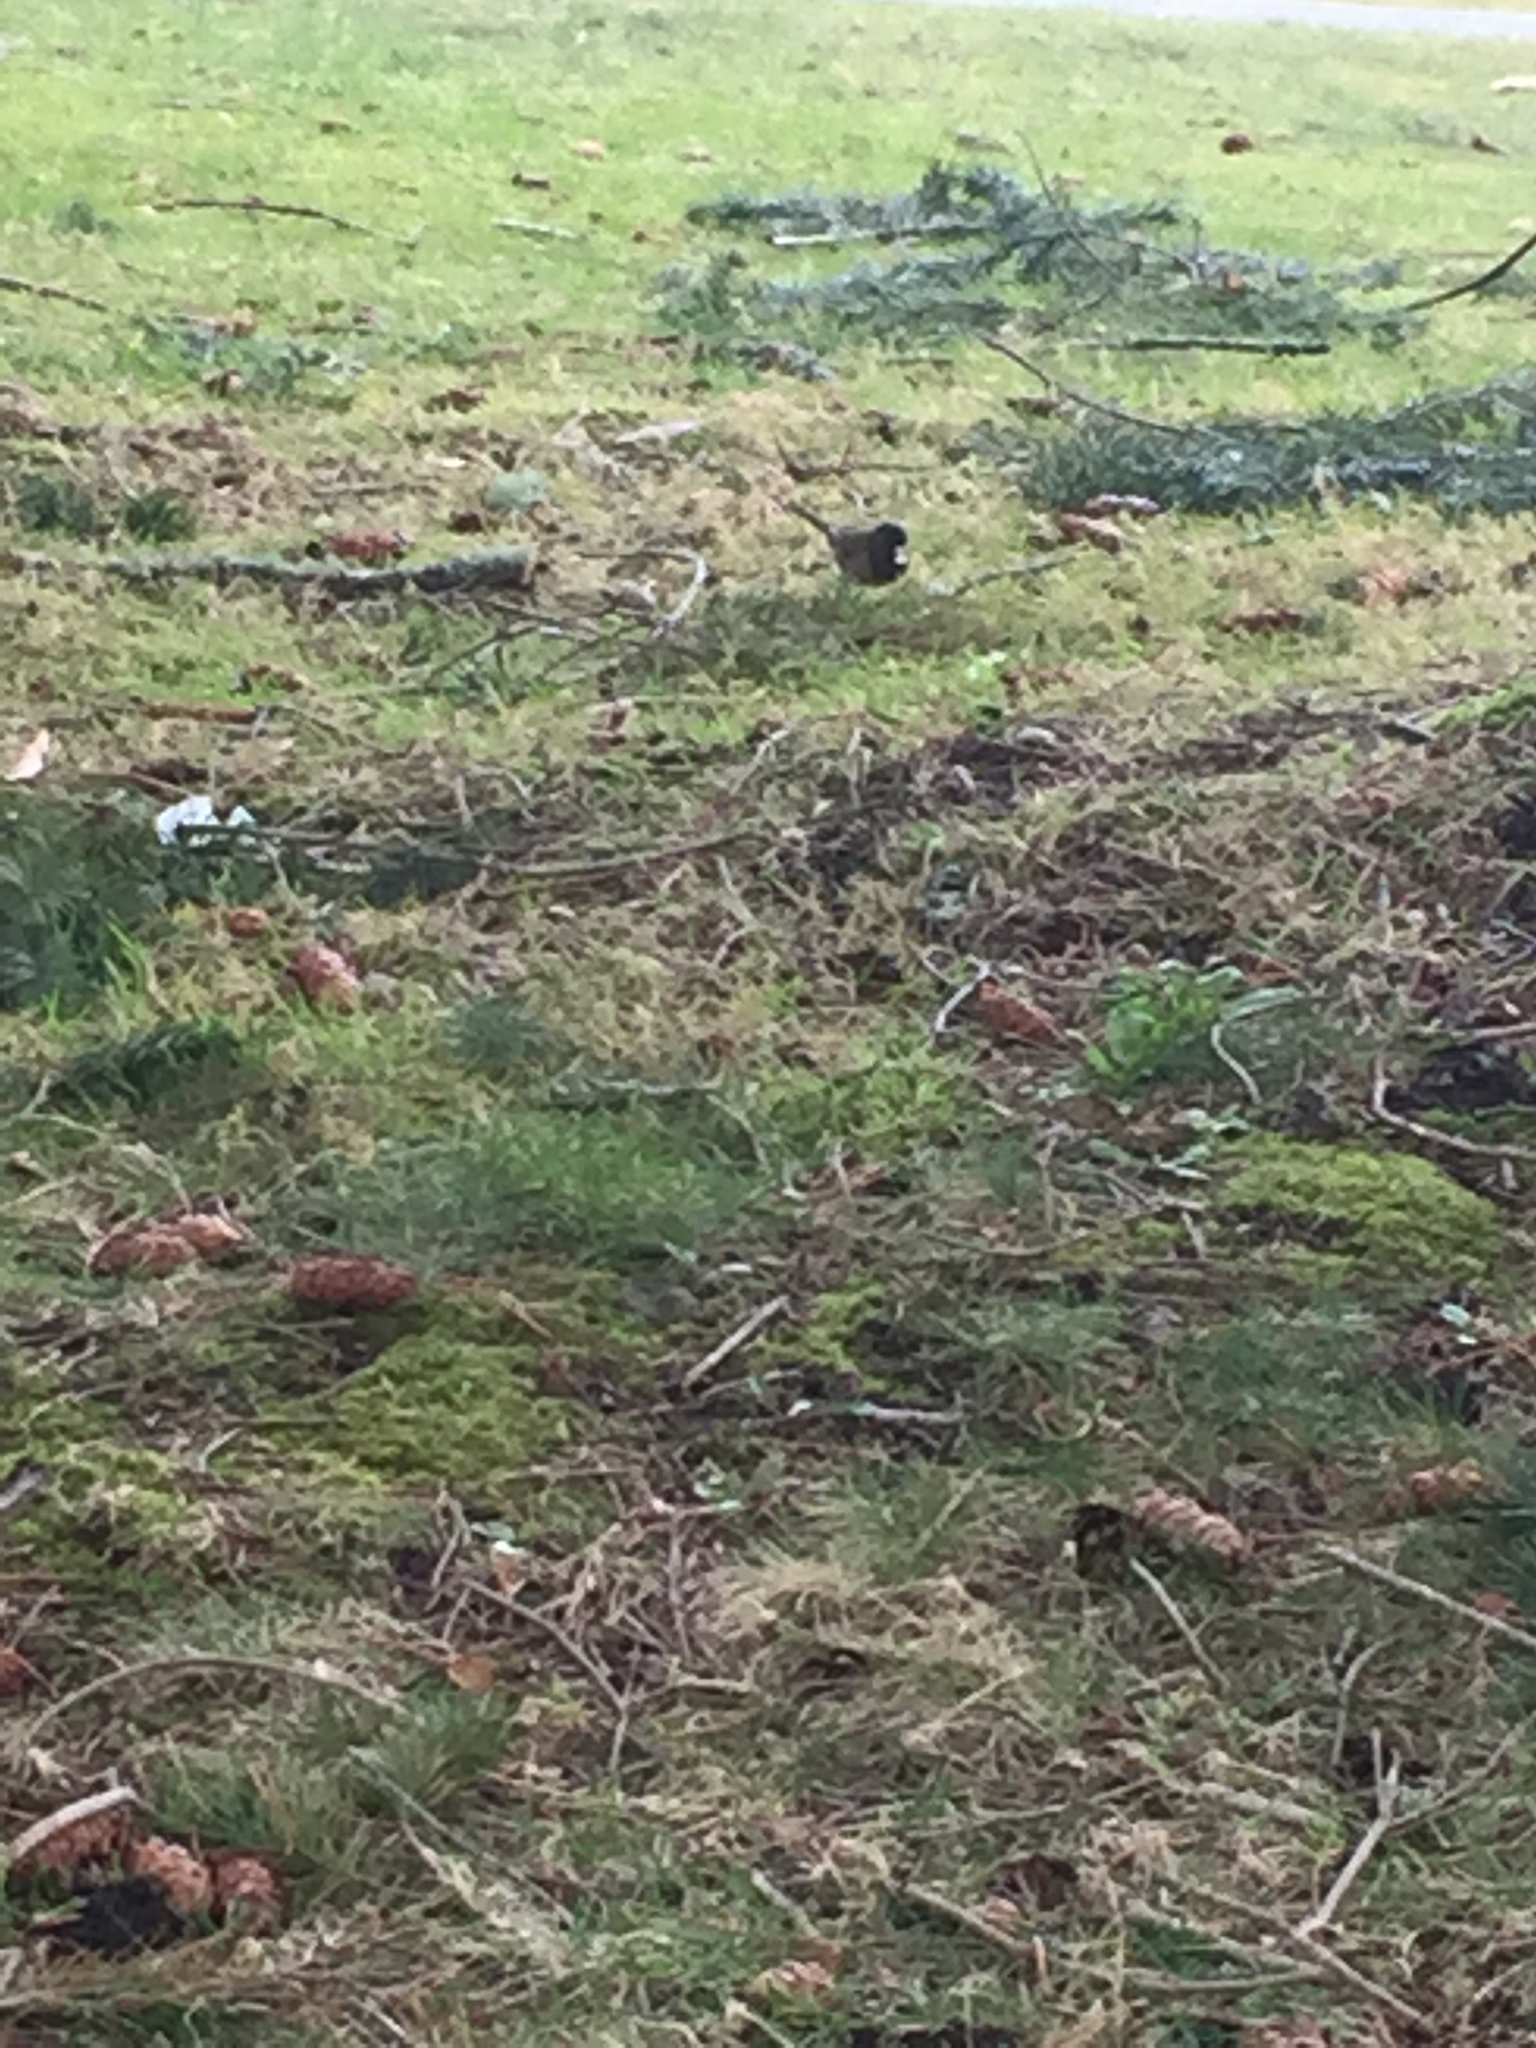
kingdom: Animalia
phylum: Chordata
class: Aves
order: Passeriformes
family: Passerellidae
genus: Junco
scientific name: Junco hyemalis
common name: Dark-eyed junco
